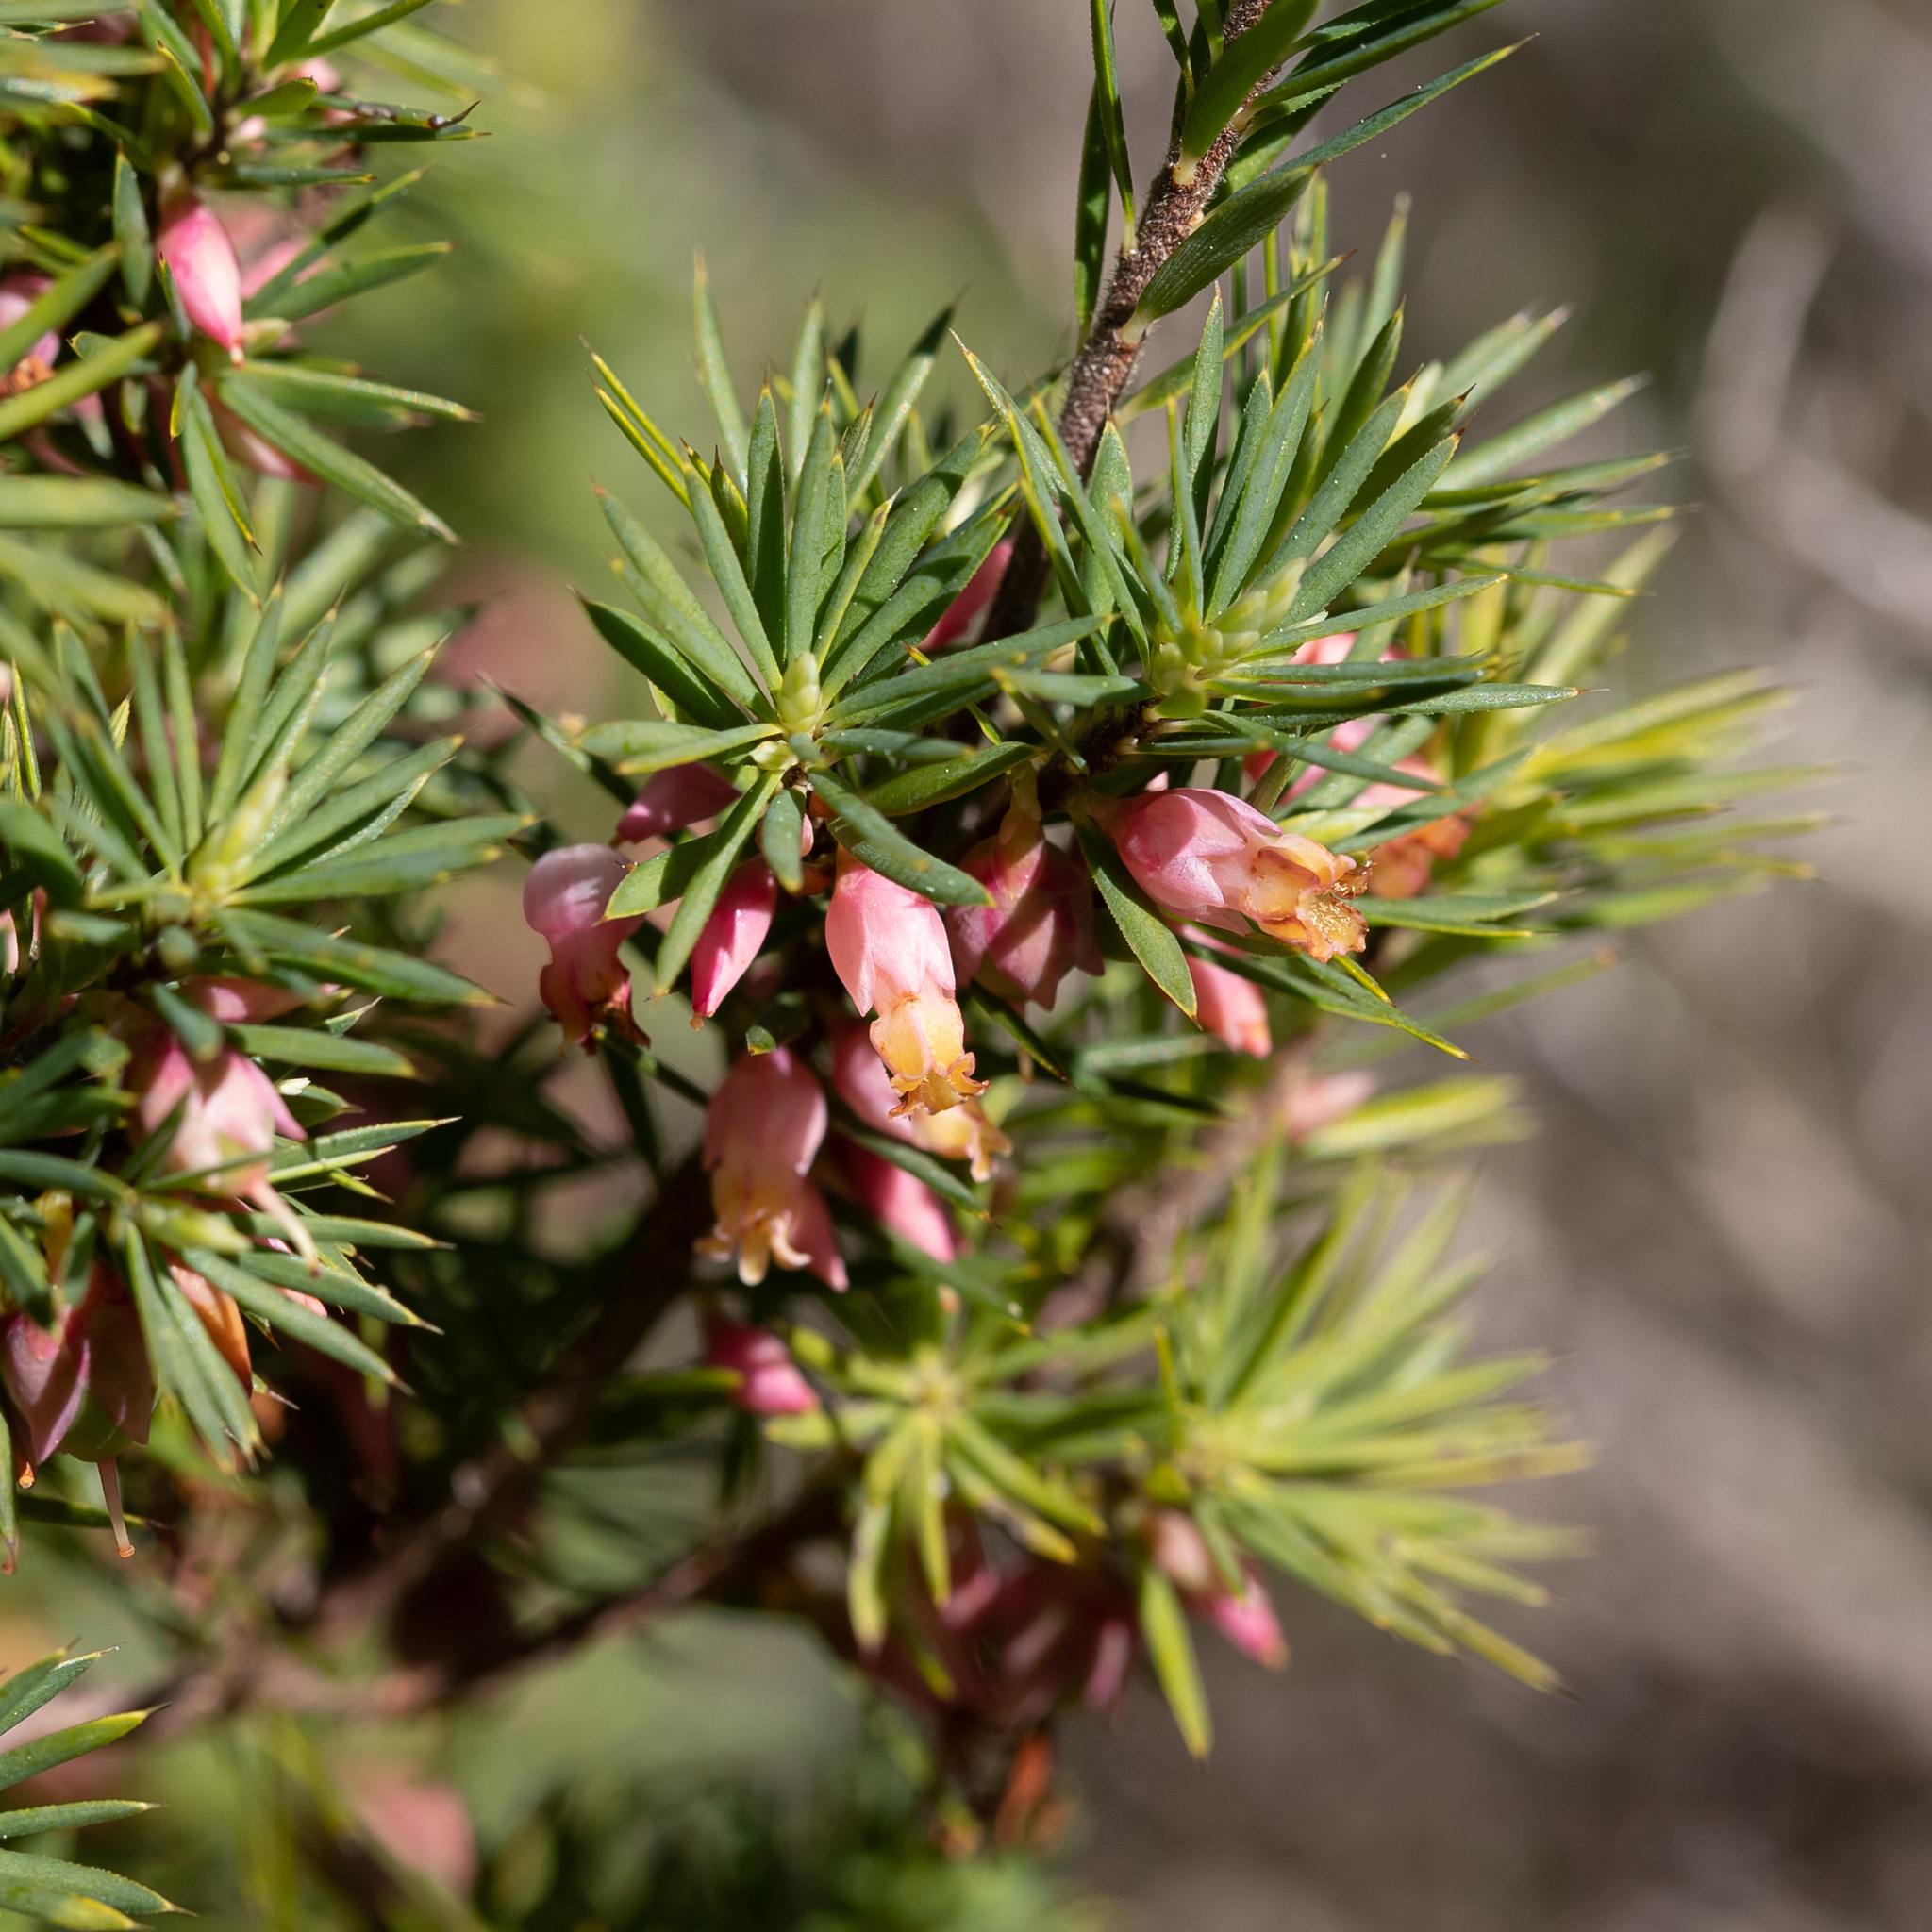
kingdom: Plantae
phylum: Tracheophyta
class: Magnoliopsida
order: Ericales
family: Ericaceae
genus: Brachyloma
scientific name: Brachyloma ericoides
